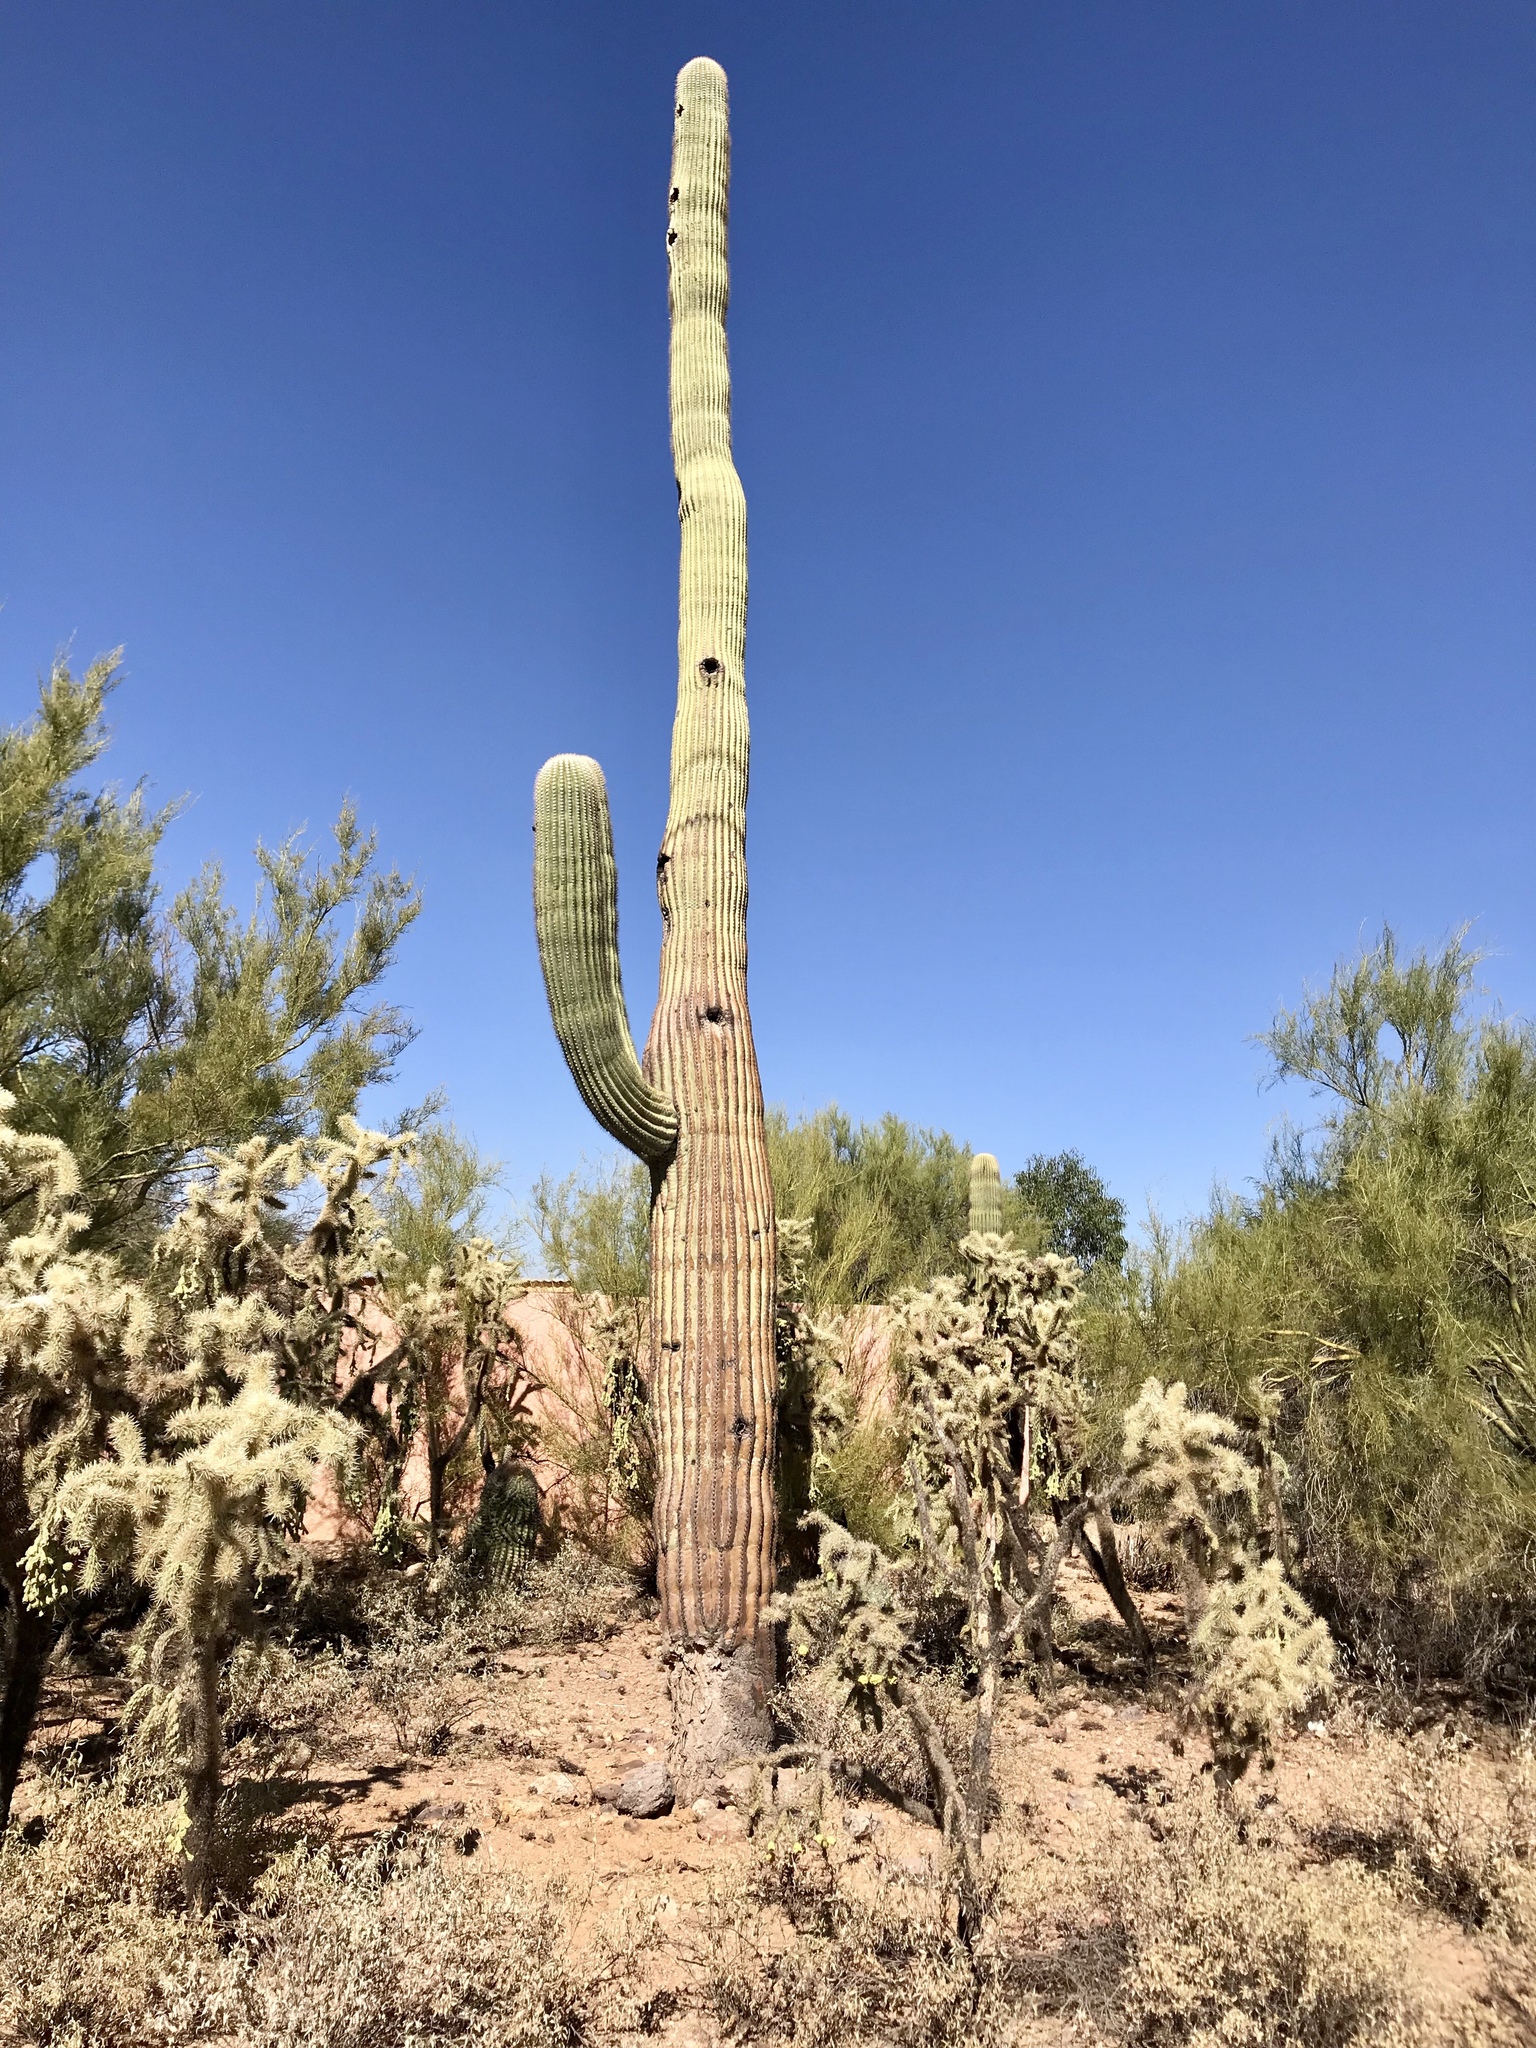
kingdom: Plantae
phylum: Tracheophyta
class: Magnoliopsida
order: Caryophyllales
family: Cactaceae
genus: Carnegiea
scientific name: Carnegiea gigantea
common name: Saguaro
